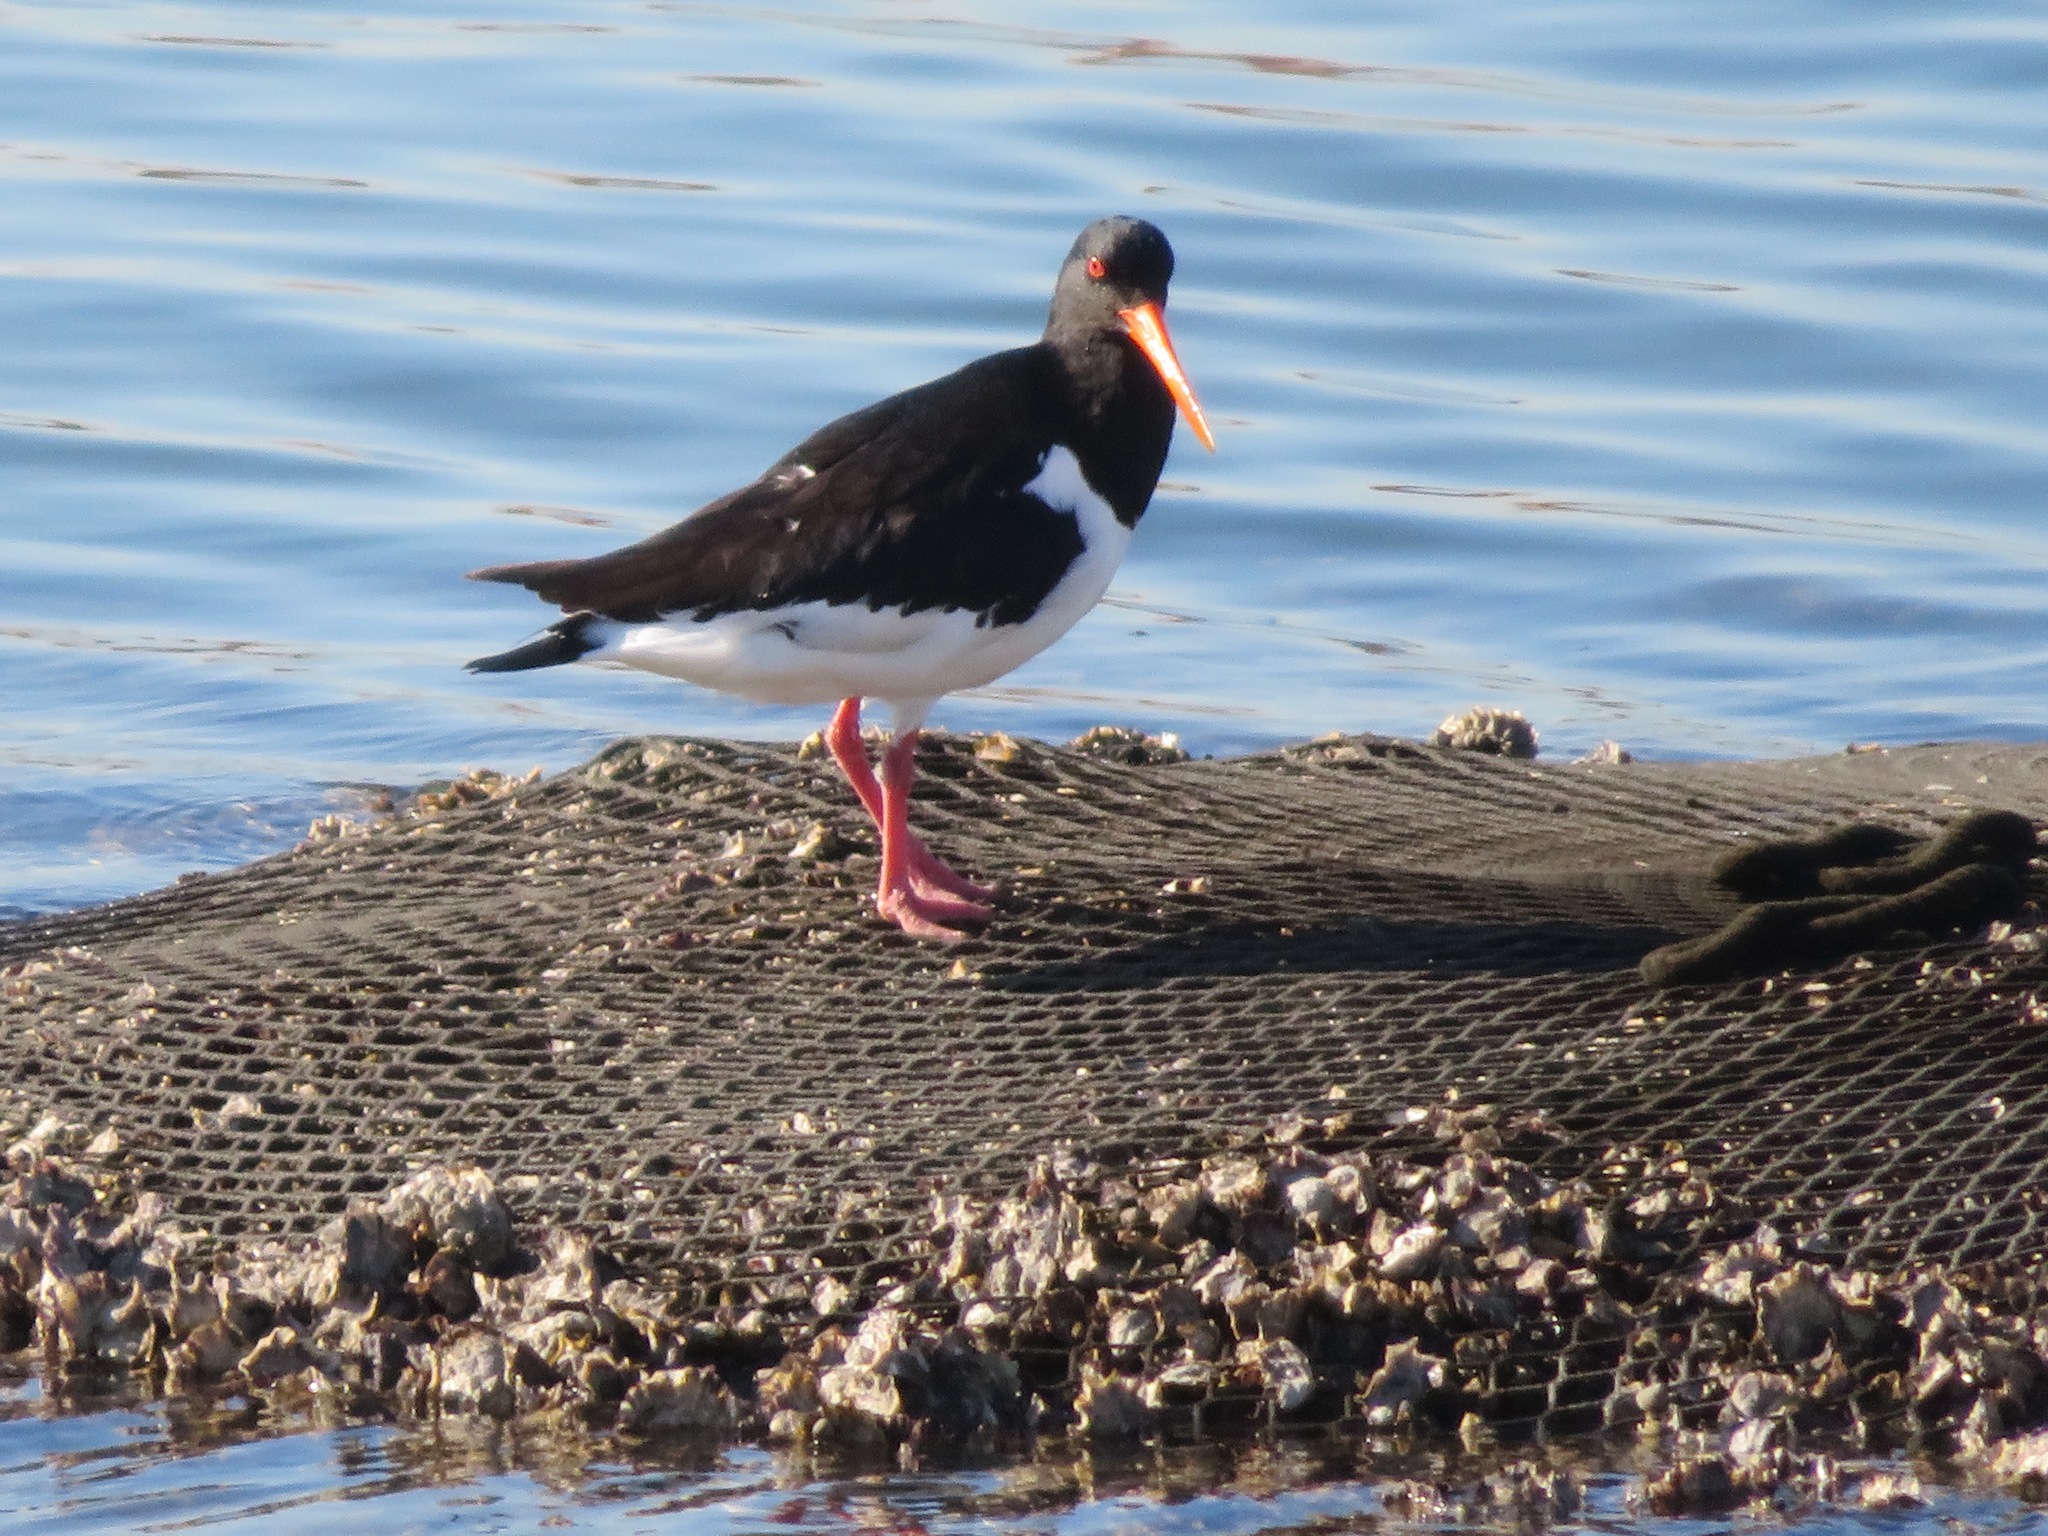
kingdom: Animalia
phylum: Chordata
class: Aves
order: Charadriiformes
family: Haematopodidae
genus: Haematopus
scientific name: Haematopus ostralegus
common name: Eurasian oystercatcher
